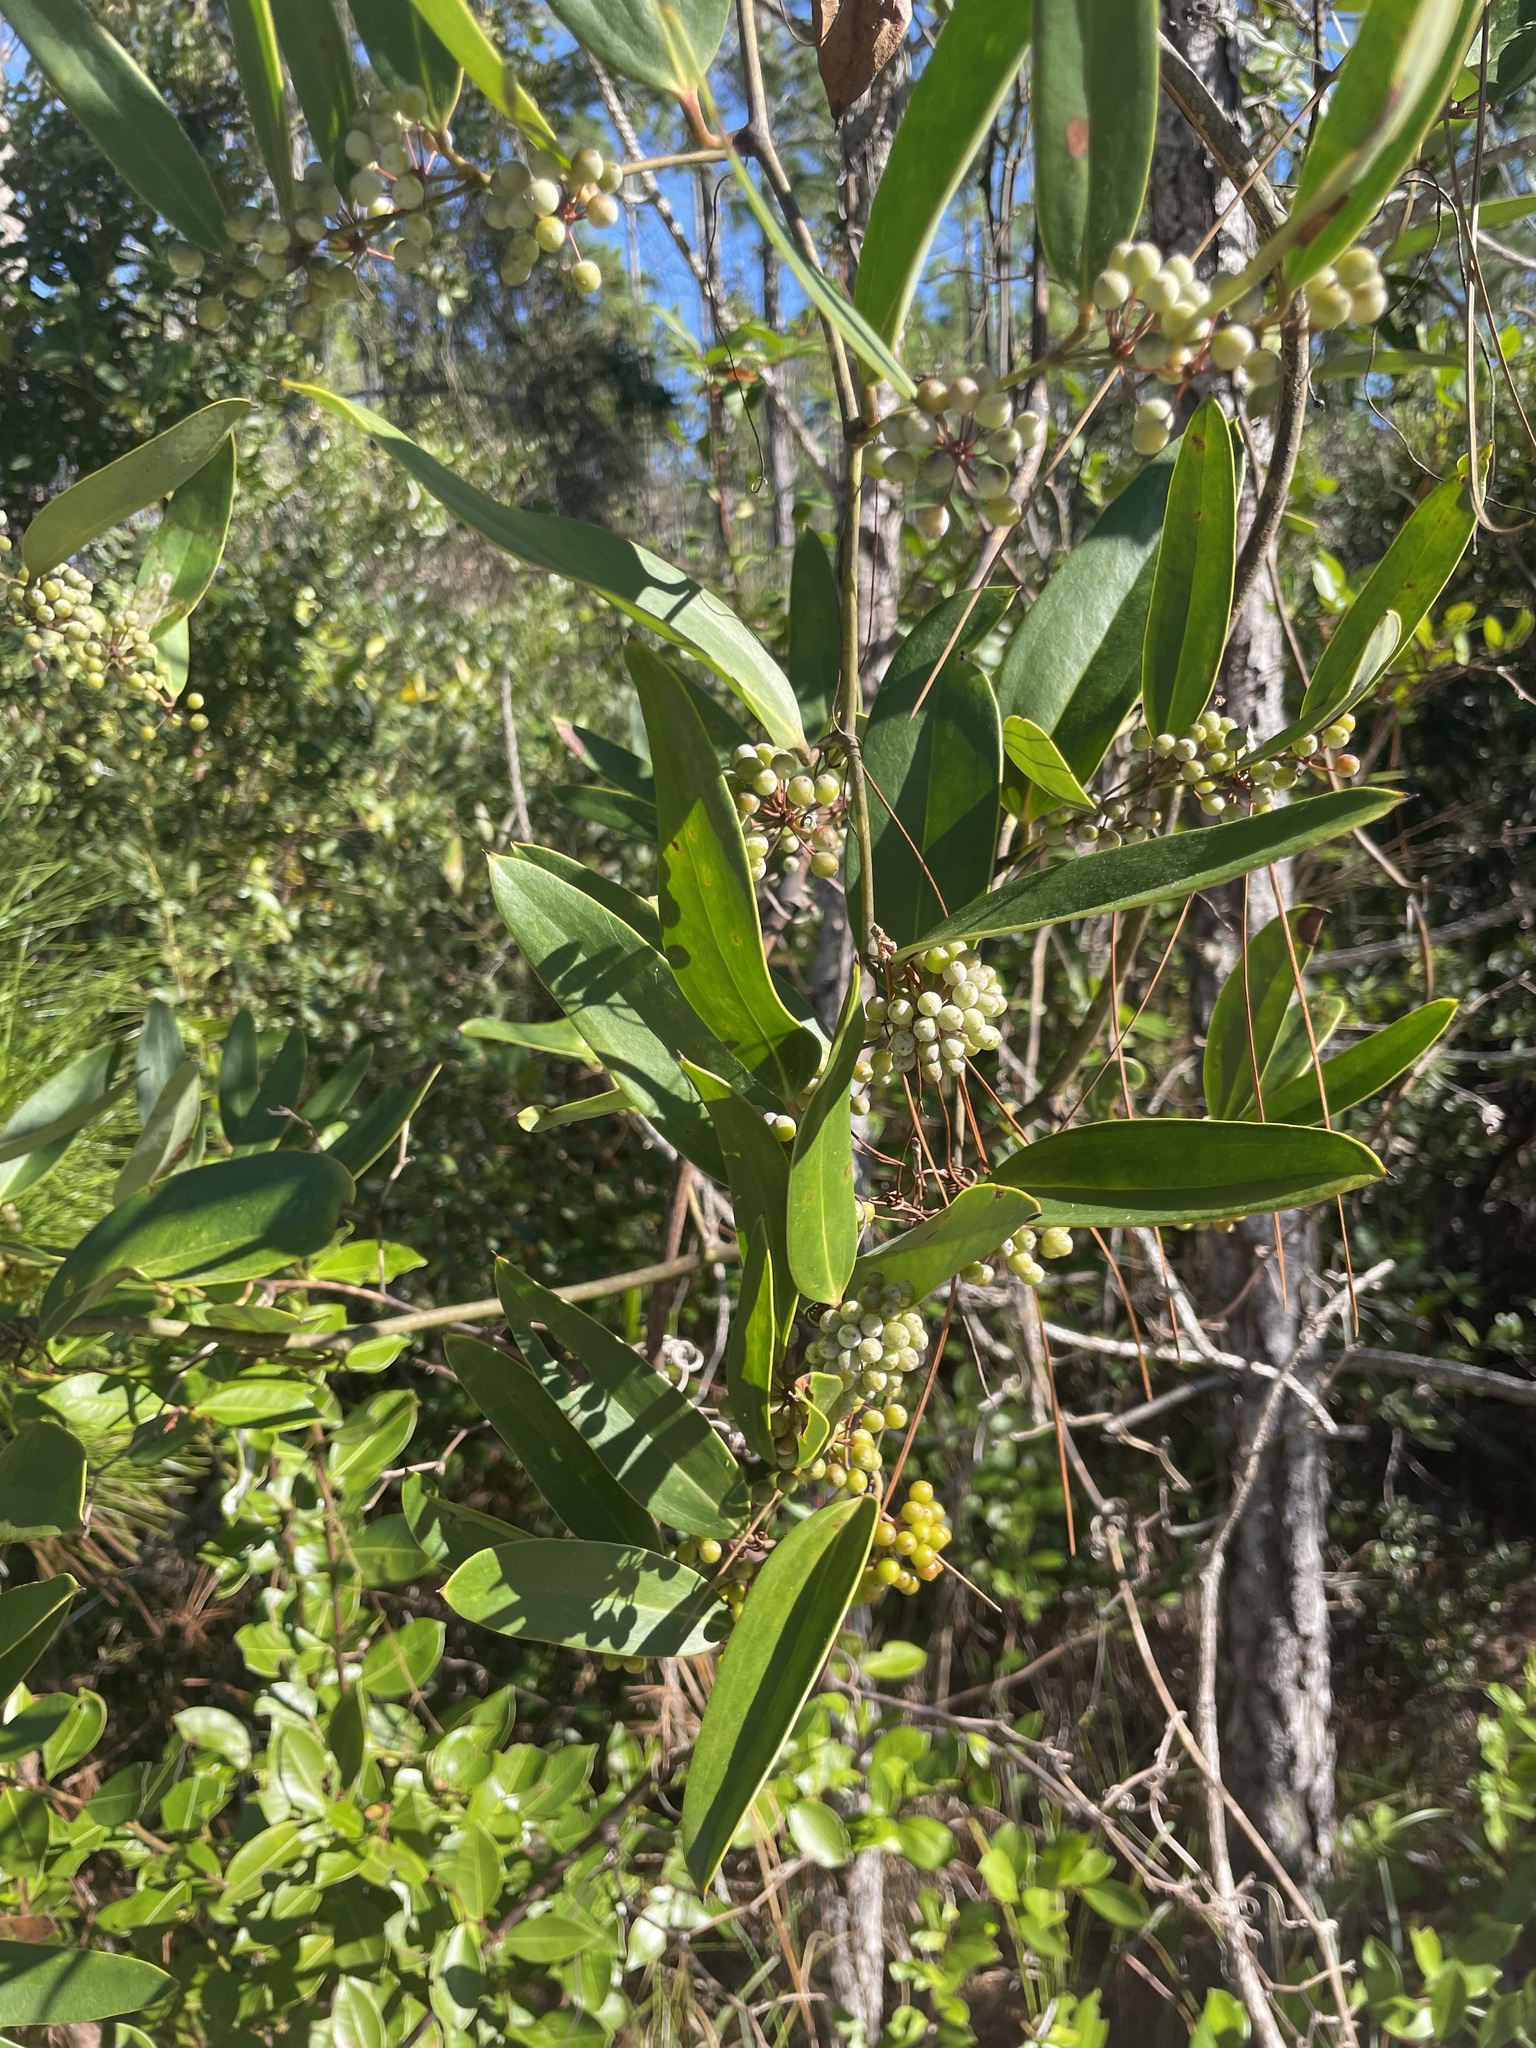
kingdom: Plantae
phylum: Tracheophyta
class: Liliopsida
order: Liliales
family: Smilacaceae
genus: Smilax
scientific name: Smilax laurifolia
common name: Bamboovine
